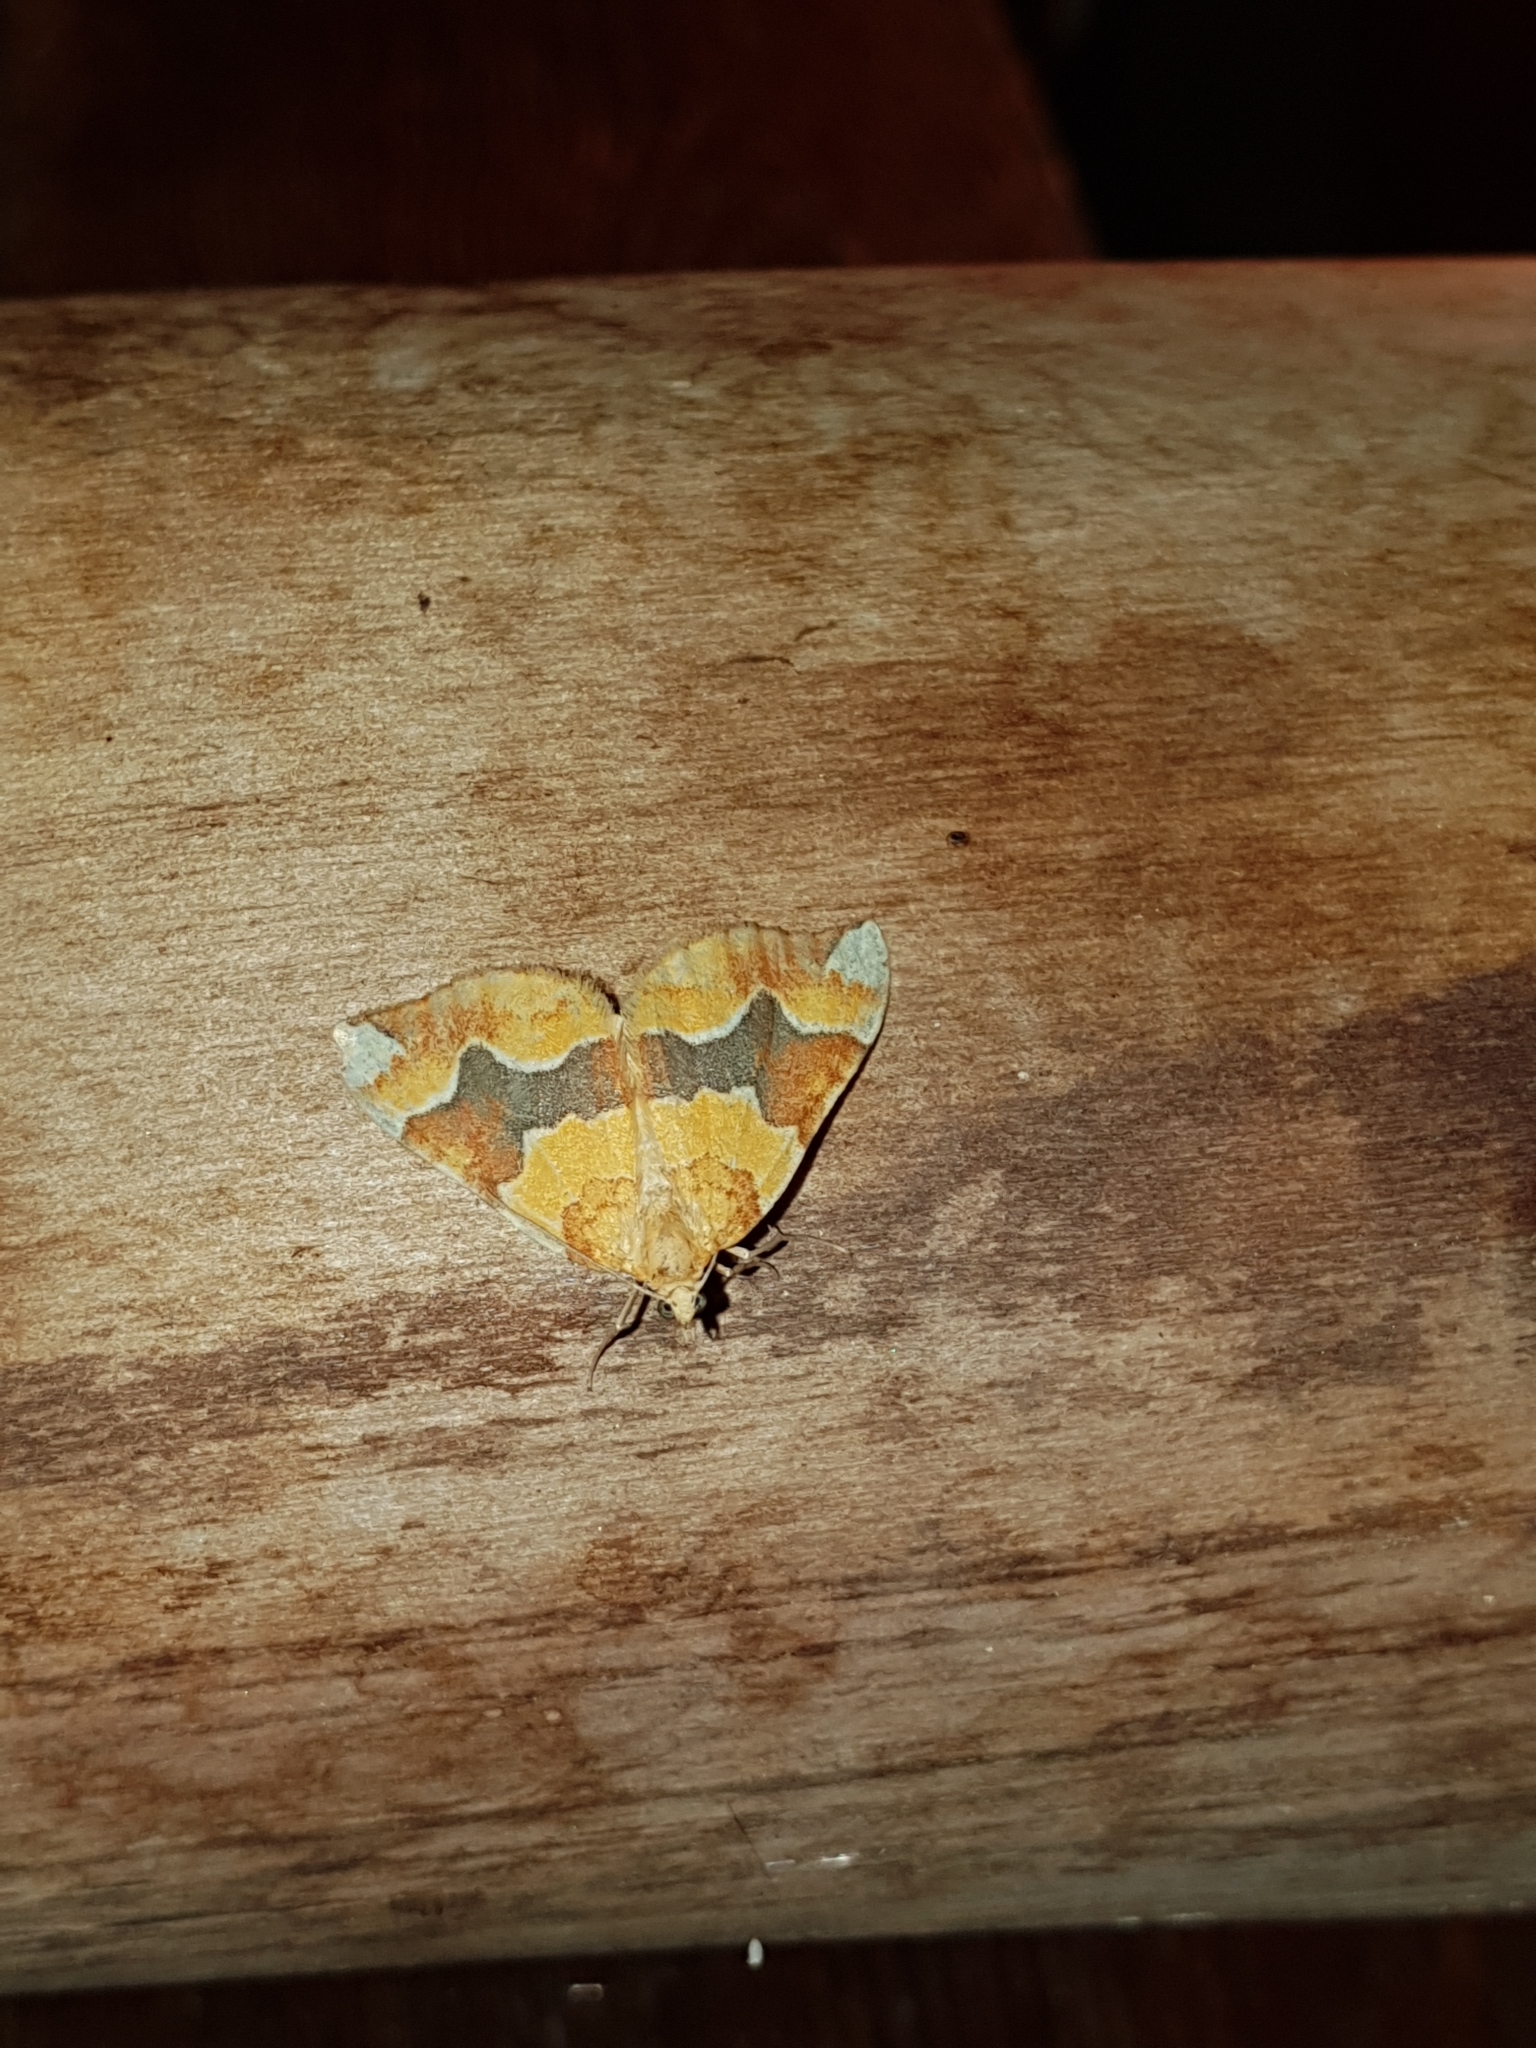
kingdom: Animalia
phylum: Arthropoda
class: Insecta
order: Lepidoptera
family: Geometridae
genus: Cidaria
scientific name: Cidaria fulvata
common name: Barred yellow
